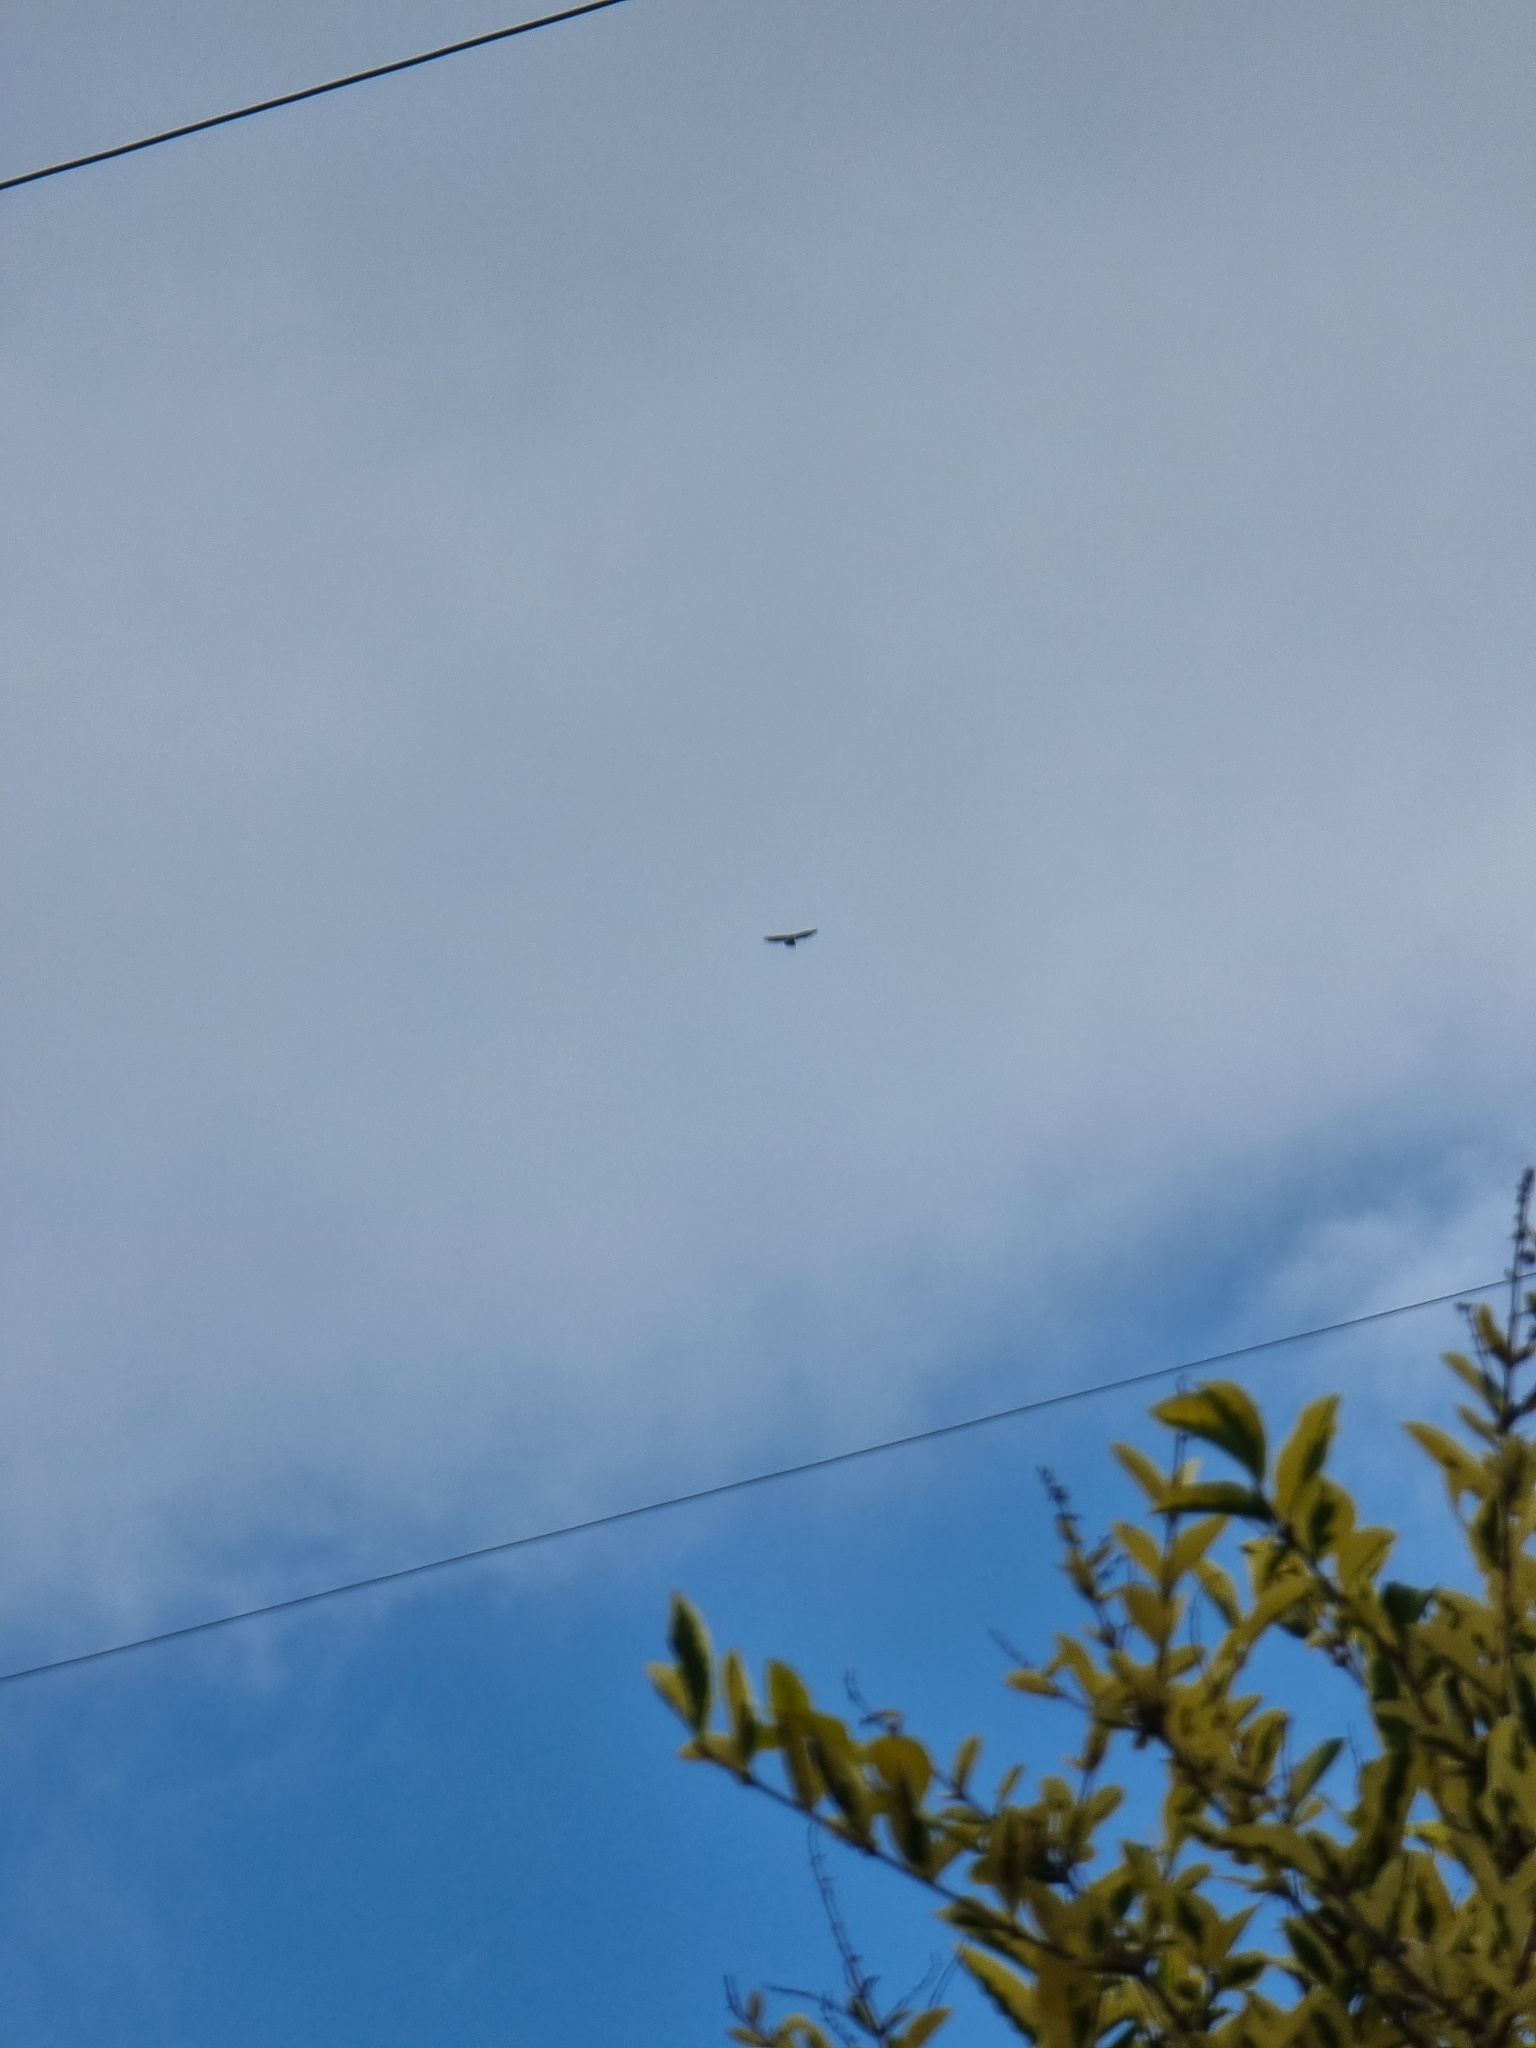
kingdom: Animalia
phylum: Chordata
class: Aves
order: Accipitriformes
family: Accipitridae
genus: Buteo
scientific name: Buteo buteo
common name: Common buzzard
